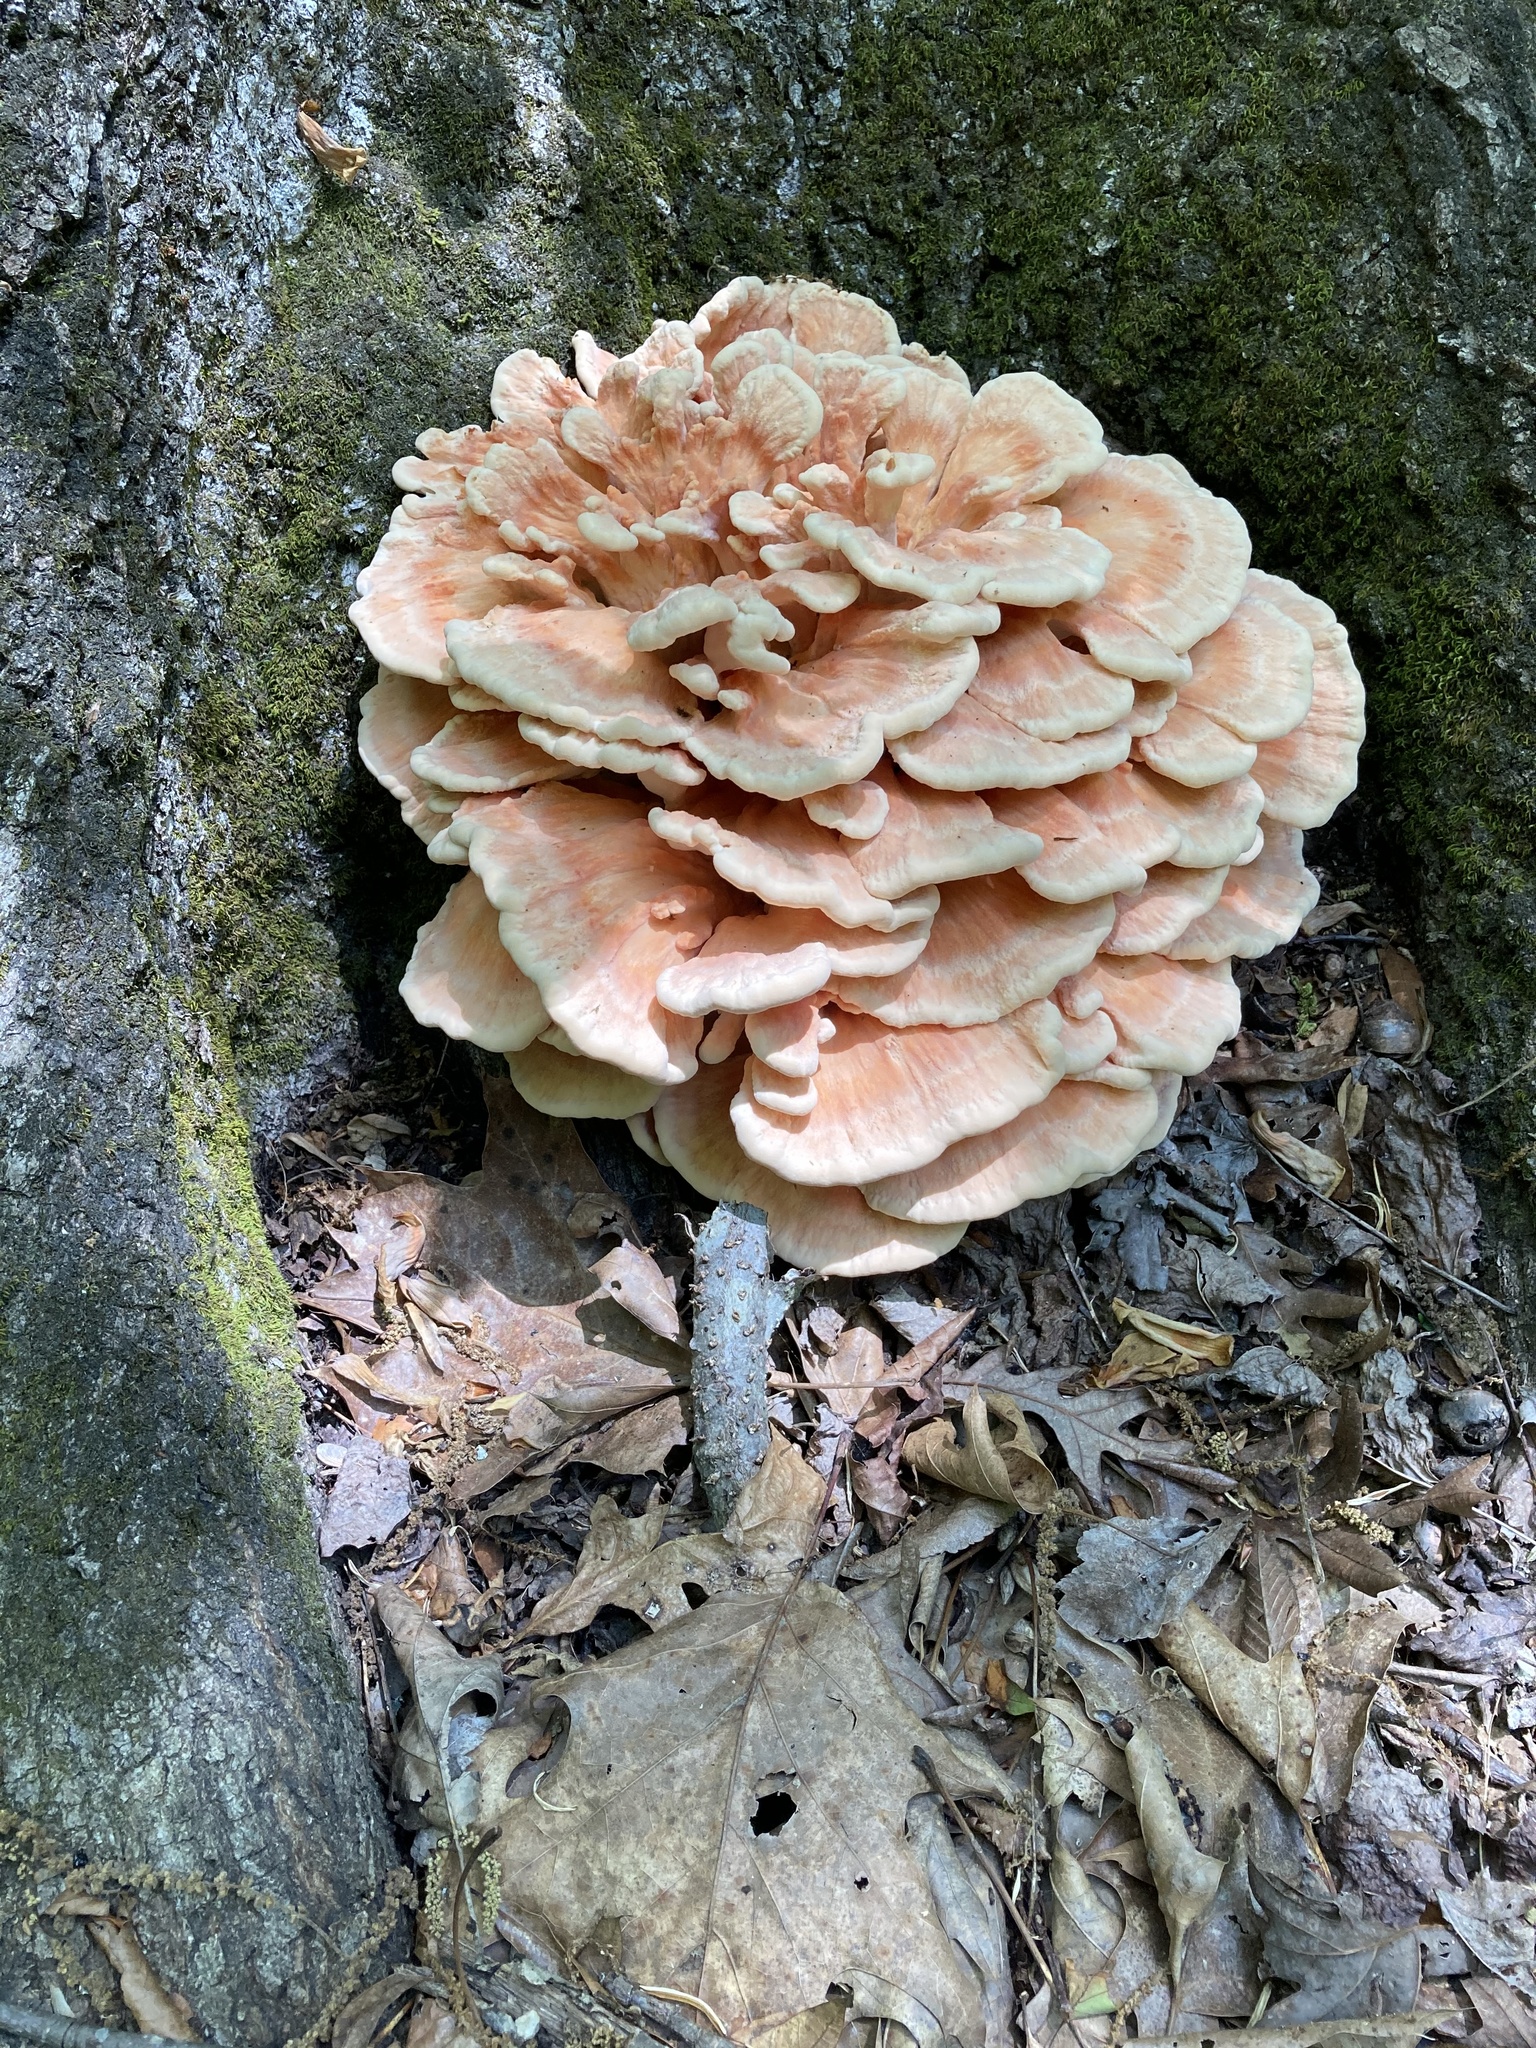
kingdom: Fungi
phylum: Basidiomycota
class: Agaricomycetes
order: Polyporales
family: Laetiporaceae
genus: Laetiporus
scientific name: Laetiporus sulphureus
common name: Chicken of the woods
